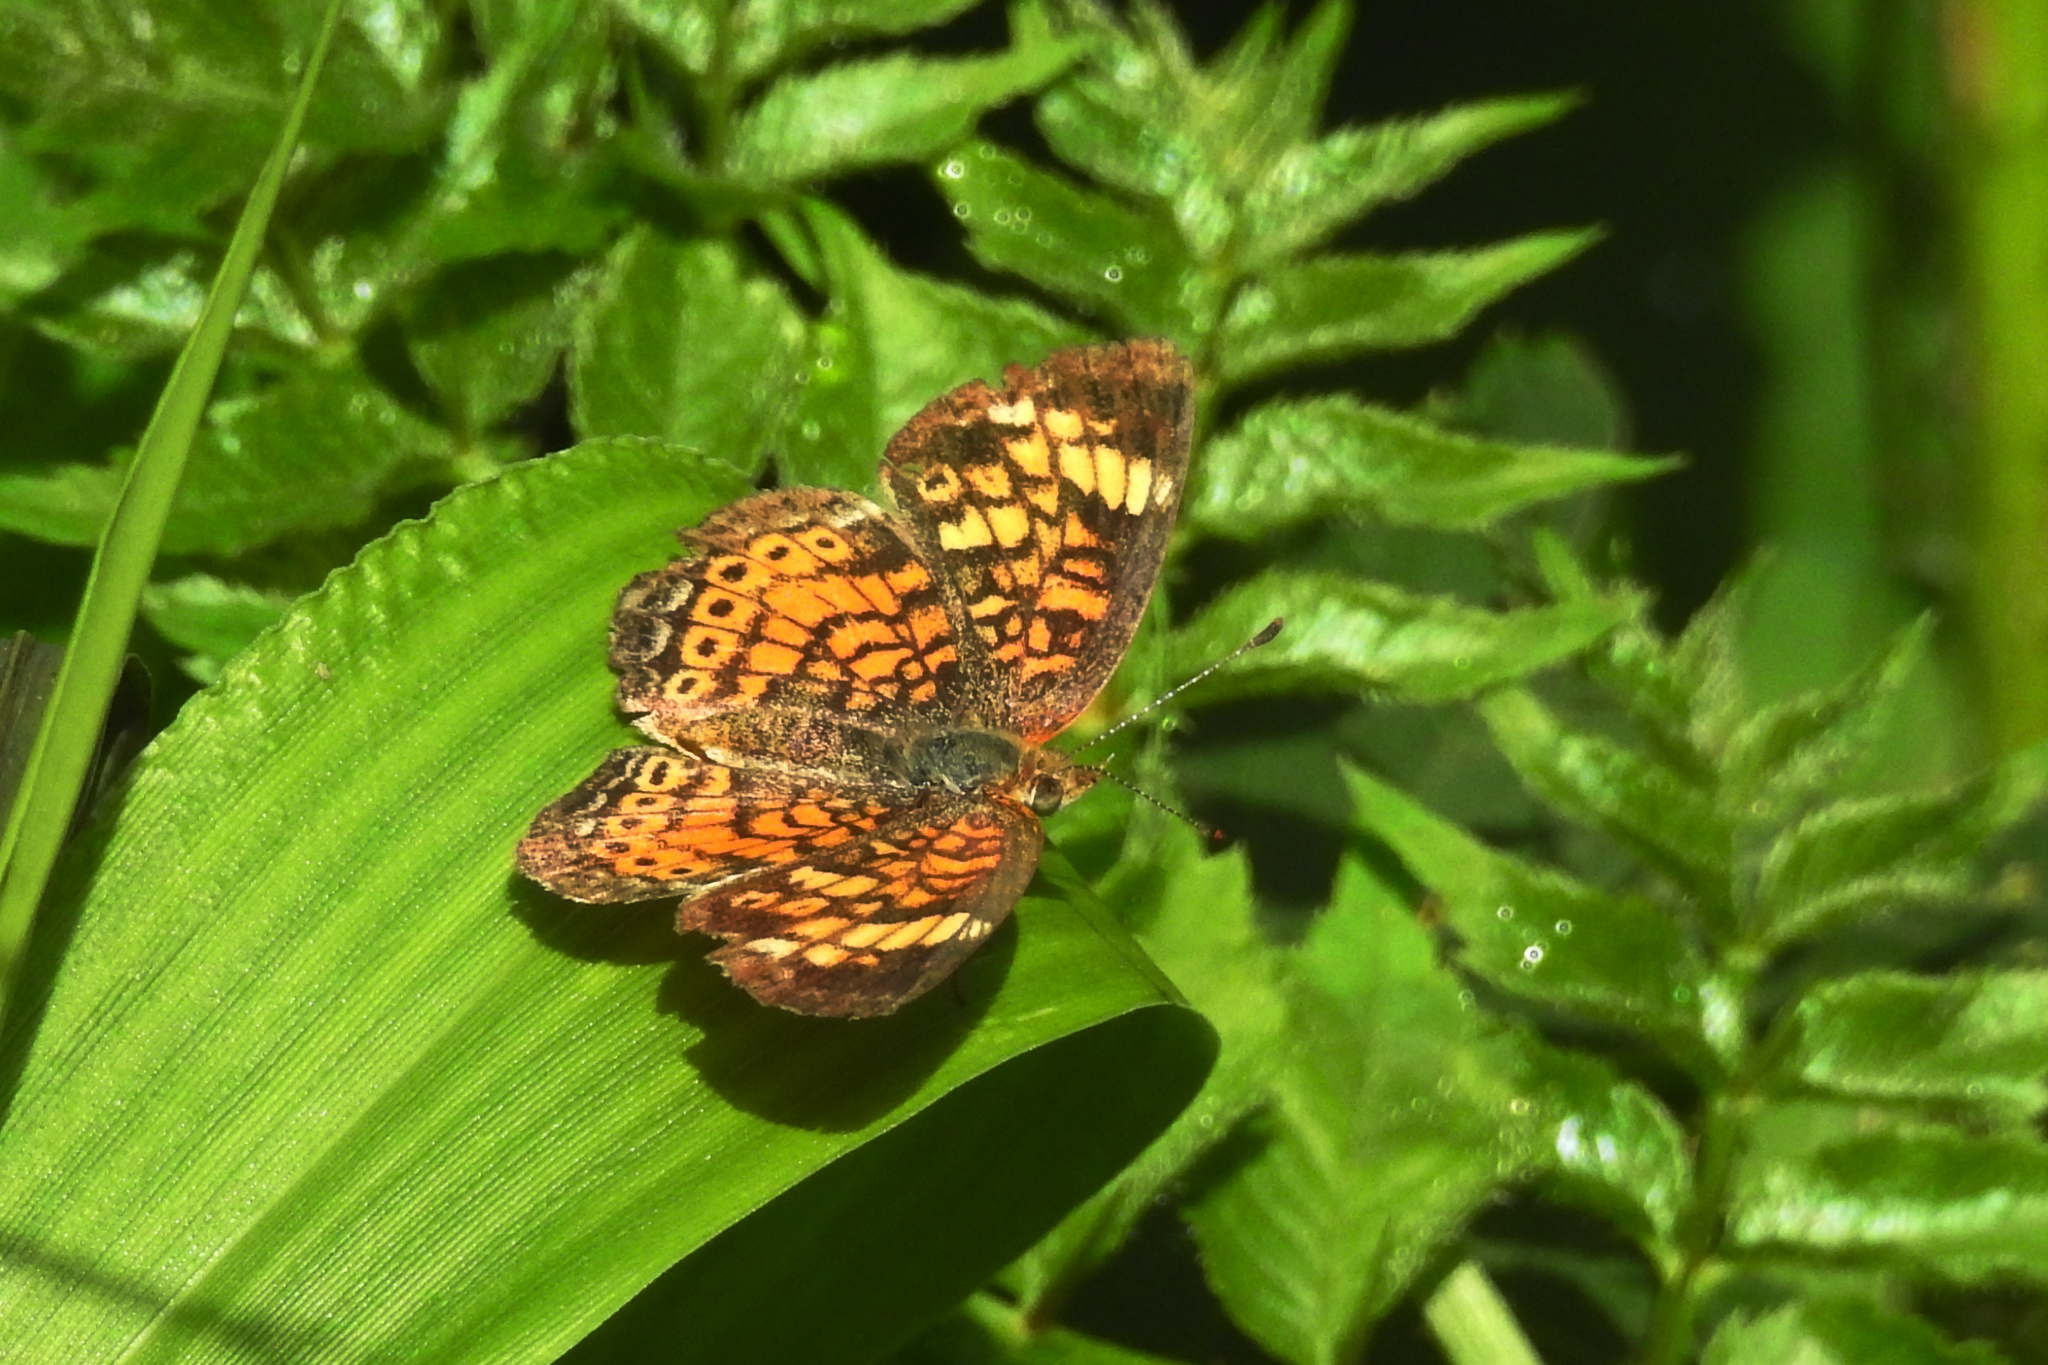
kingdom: Animalia
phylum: Arthropoda
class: Insecta
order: Lepidoptera
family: Nymphalidae
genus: Phyciodes
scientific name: Phyciodes tharos
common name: Pearl crescent
